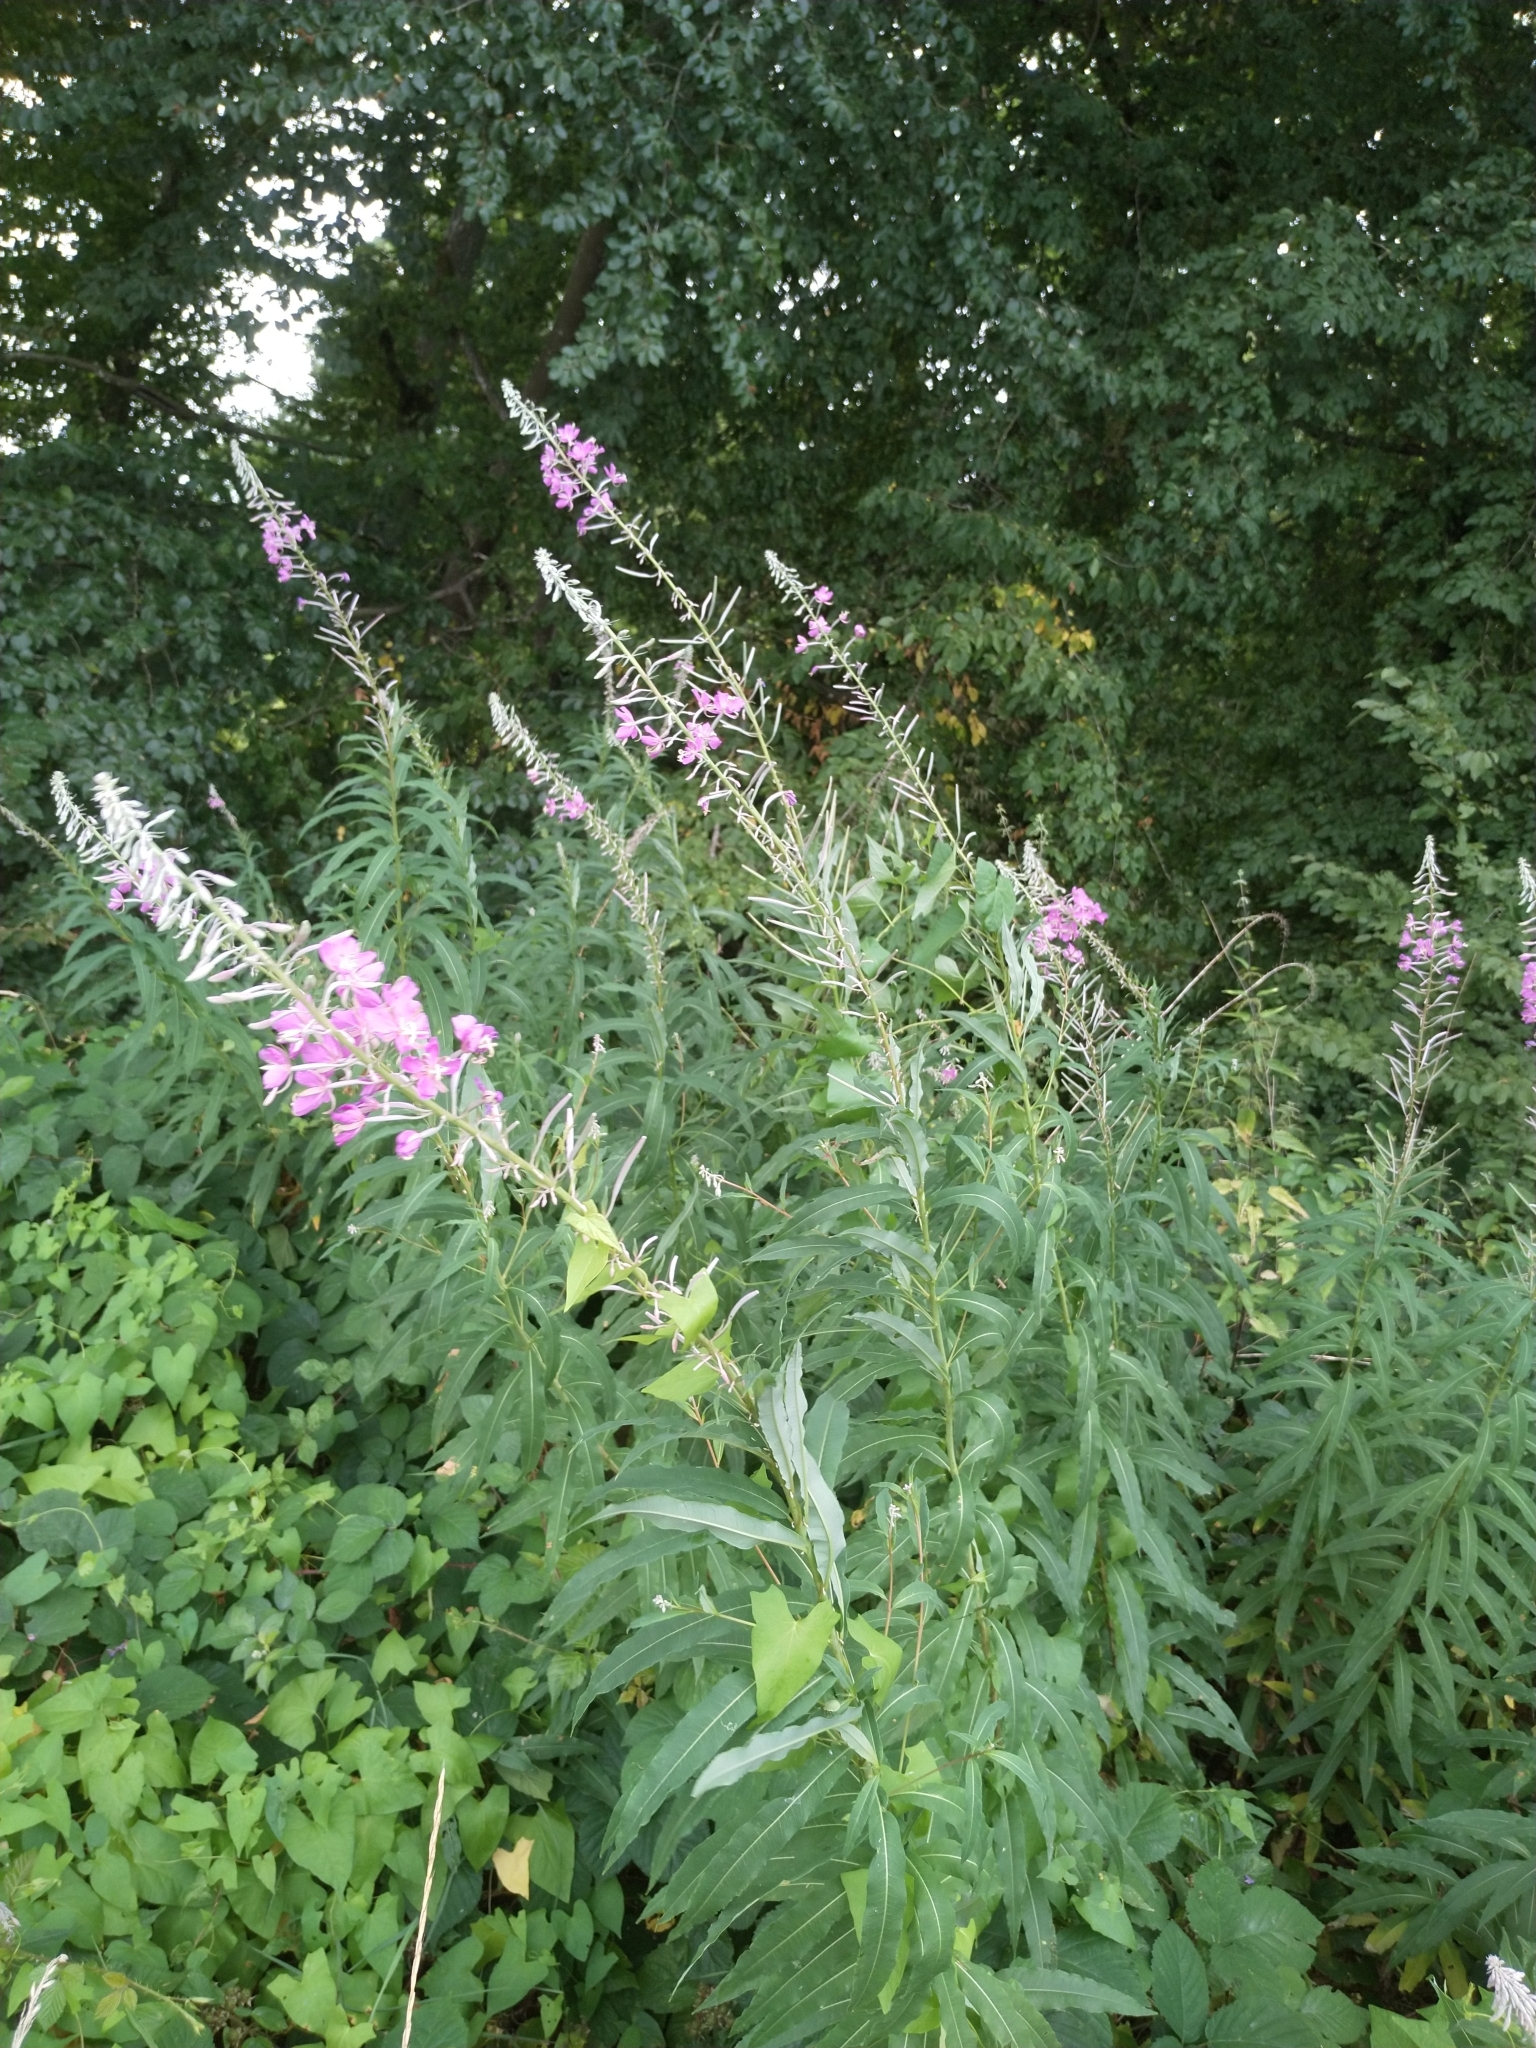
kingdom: Plantae
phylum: Tracheophyta
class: Magnoliopsida
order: Myrtales
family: Onagraceae
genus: Chamaenerion
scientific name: Chamaenerion angustifolium
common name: Fireweed
